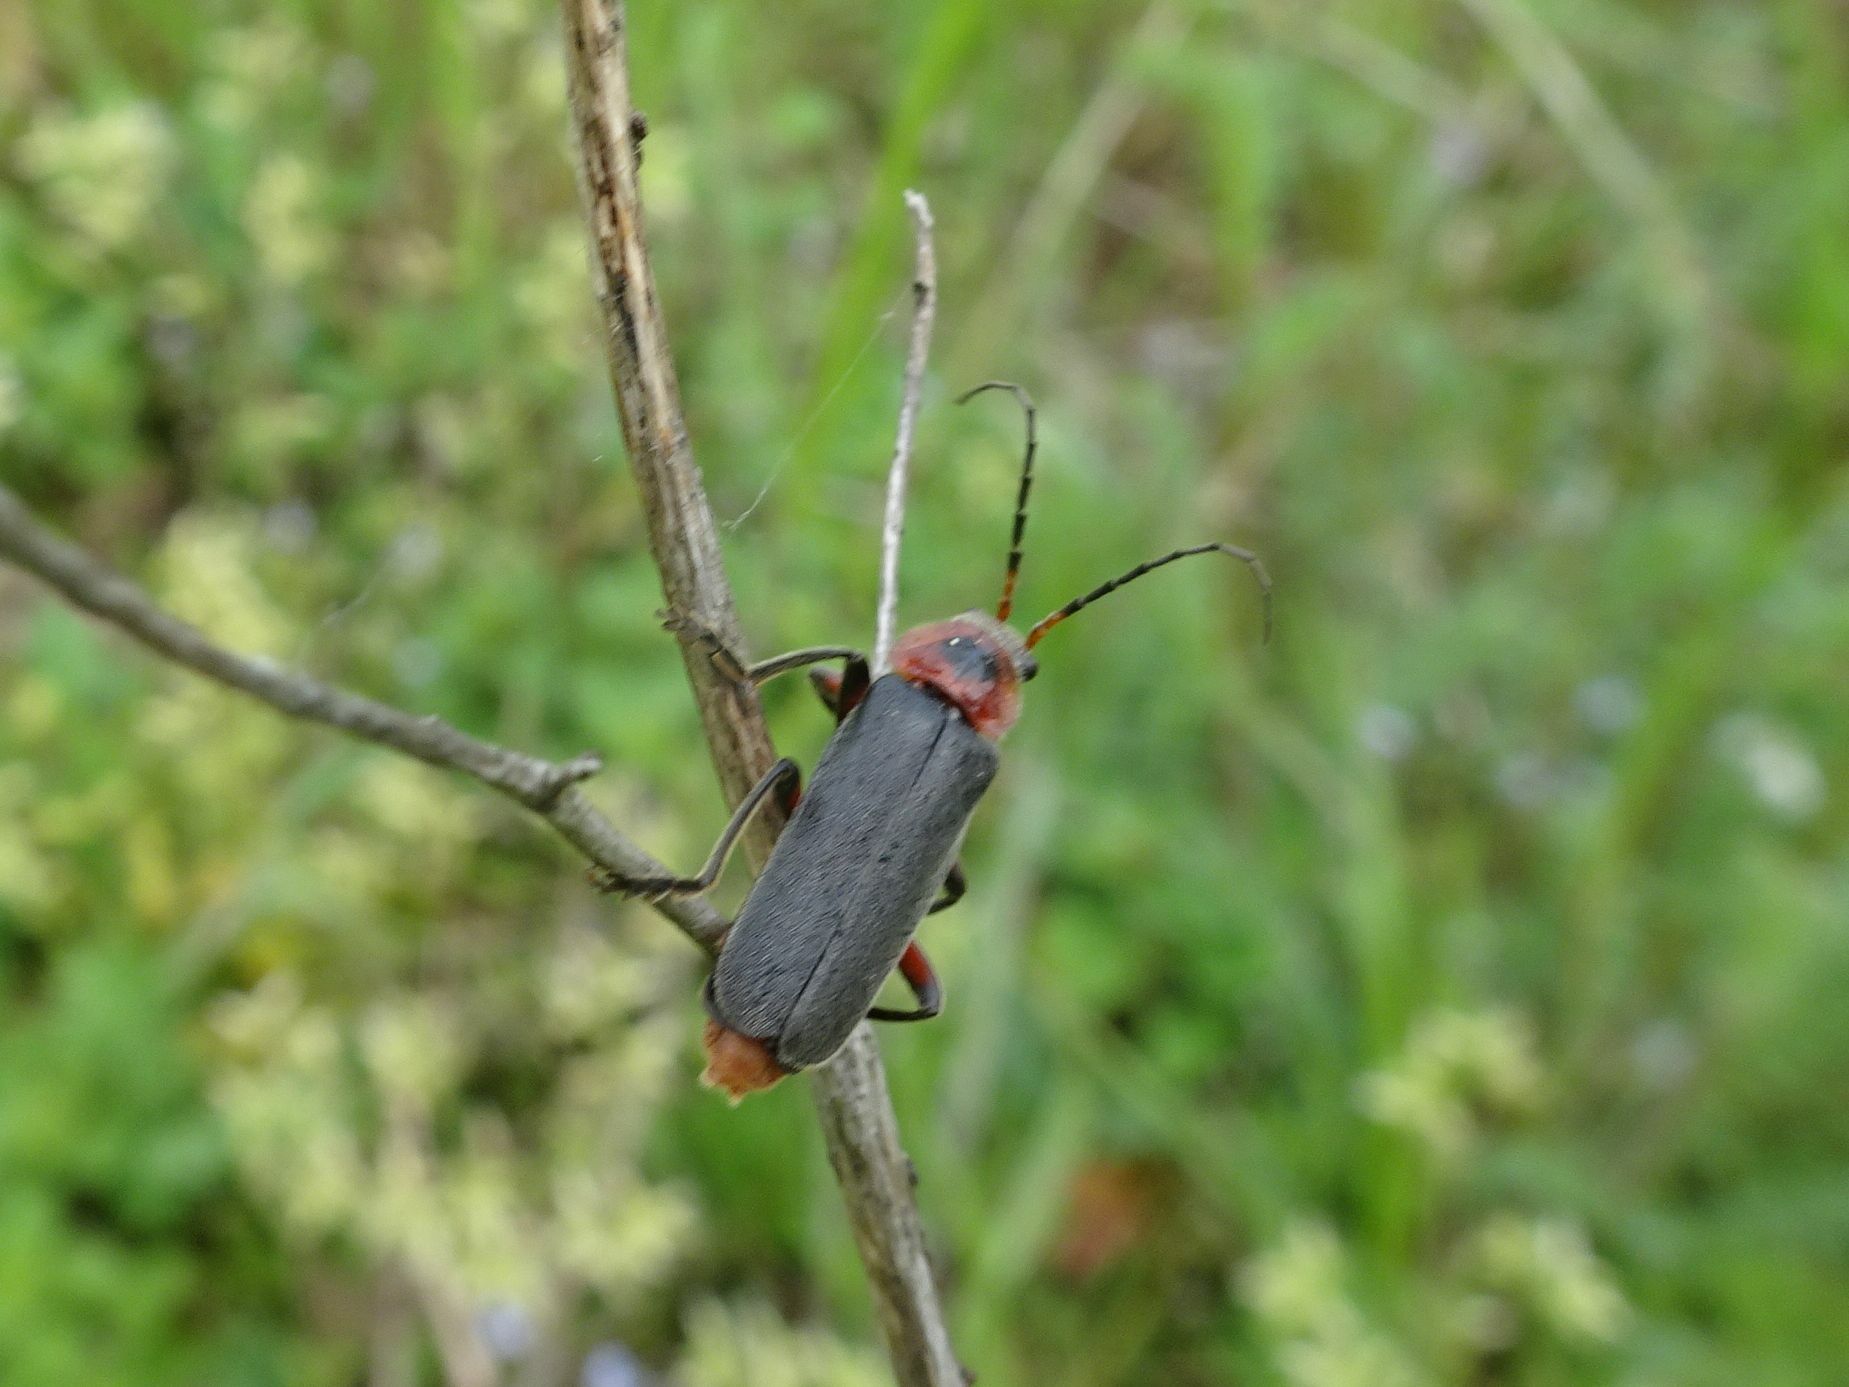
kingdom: Animalia
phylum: Arthropoda
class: Insecta
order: Coleoptera
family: Cantharidae
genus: Cantharis
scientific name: Cantharis rustica
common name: Soldier beetle
